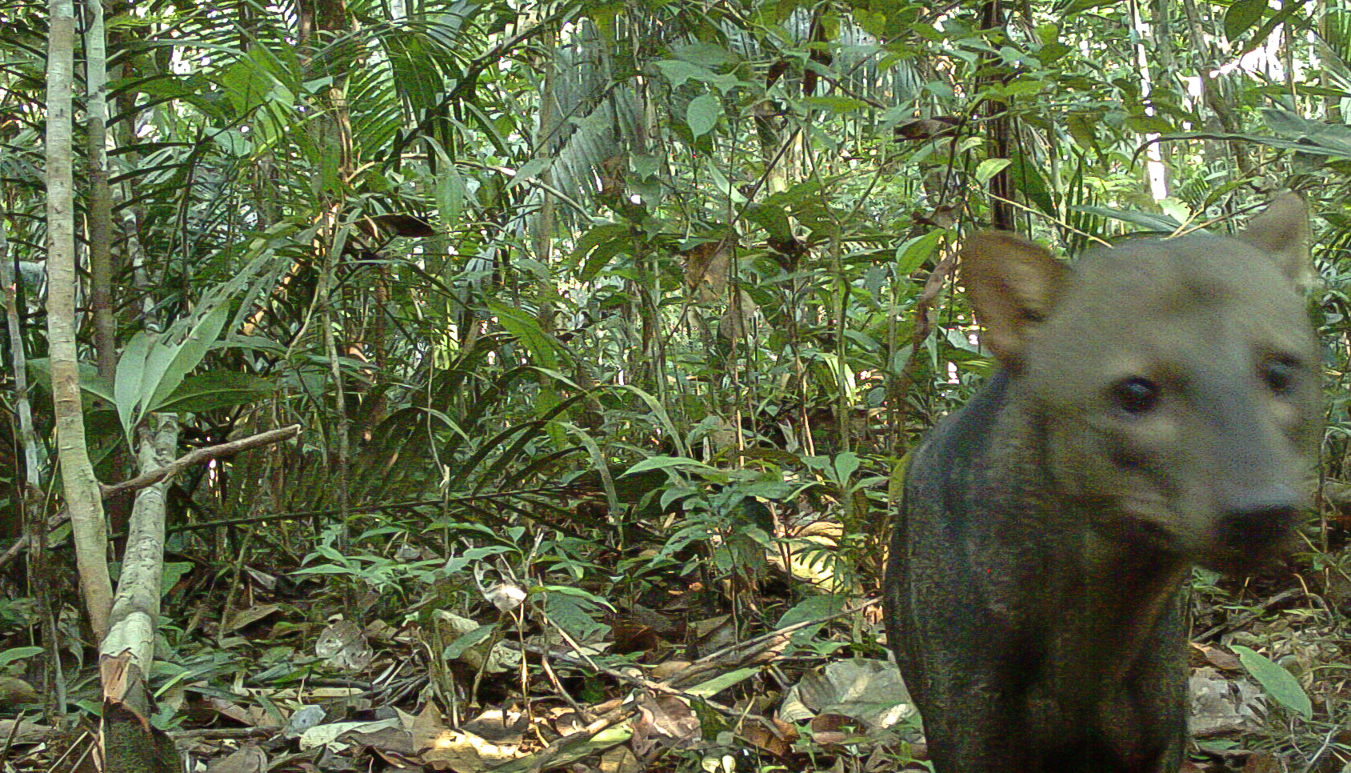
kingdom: Animalia
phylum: Chordata
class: Mammalia
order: Carnivora
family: Canidae
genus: Atelocynus
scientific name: Atelocynus microtis
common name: Short-eared dog
